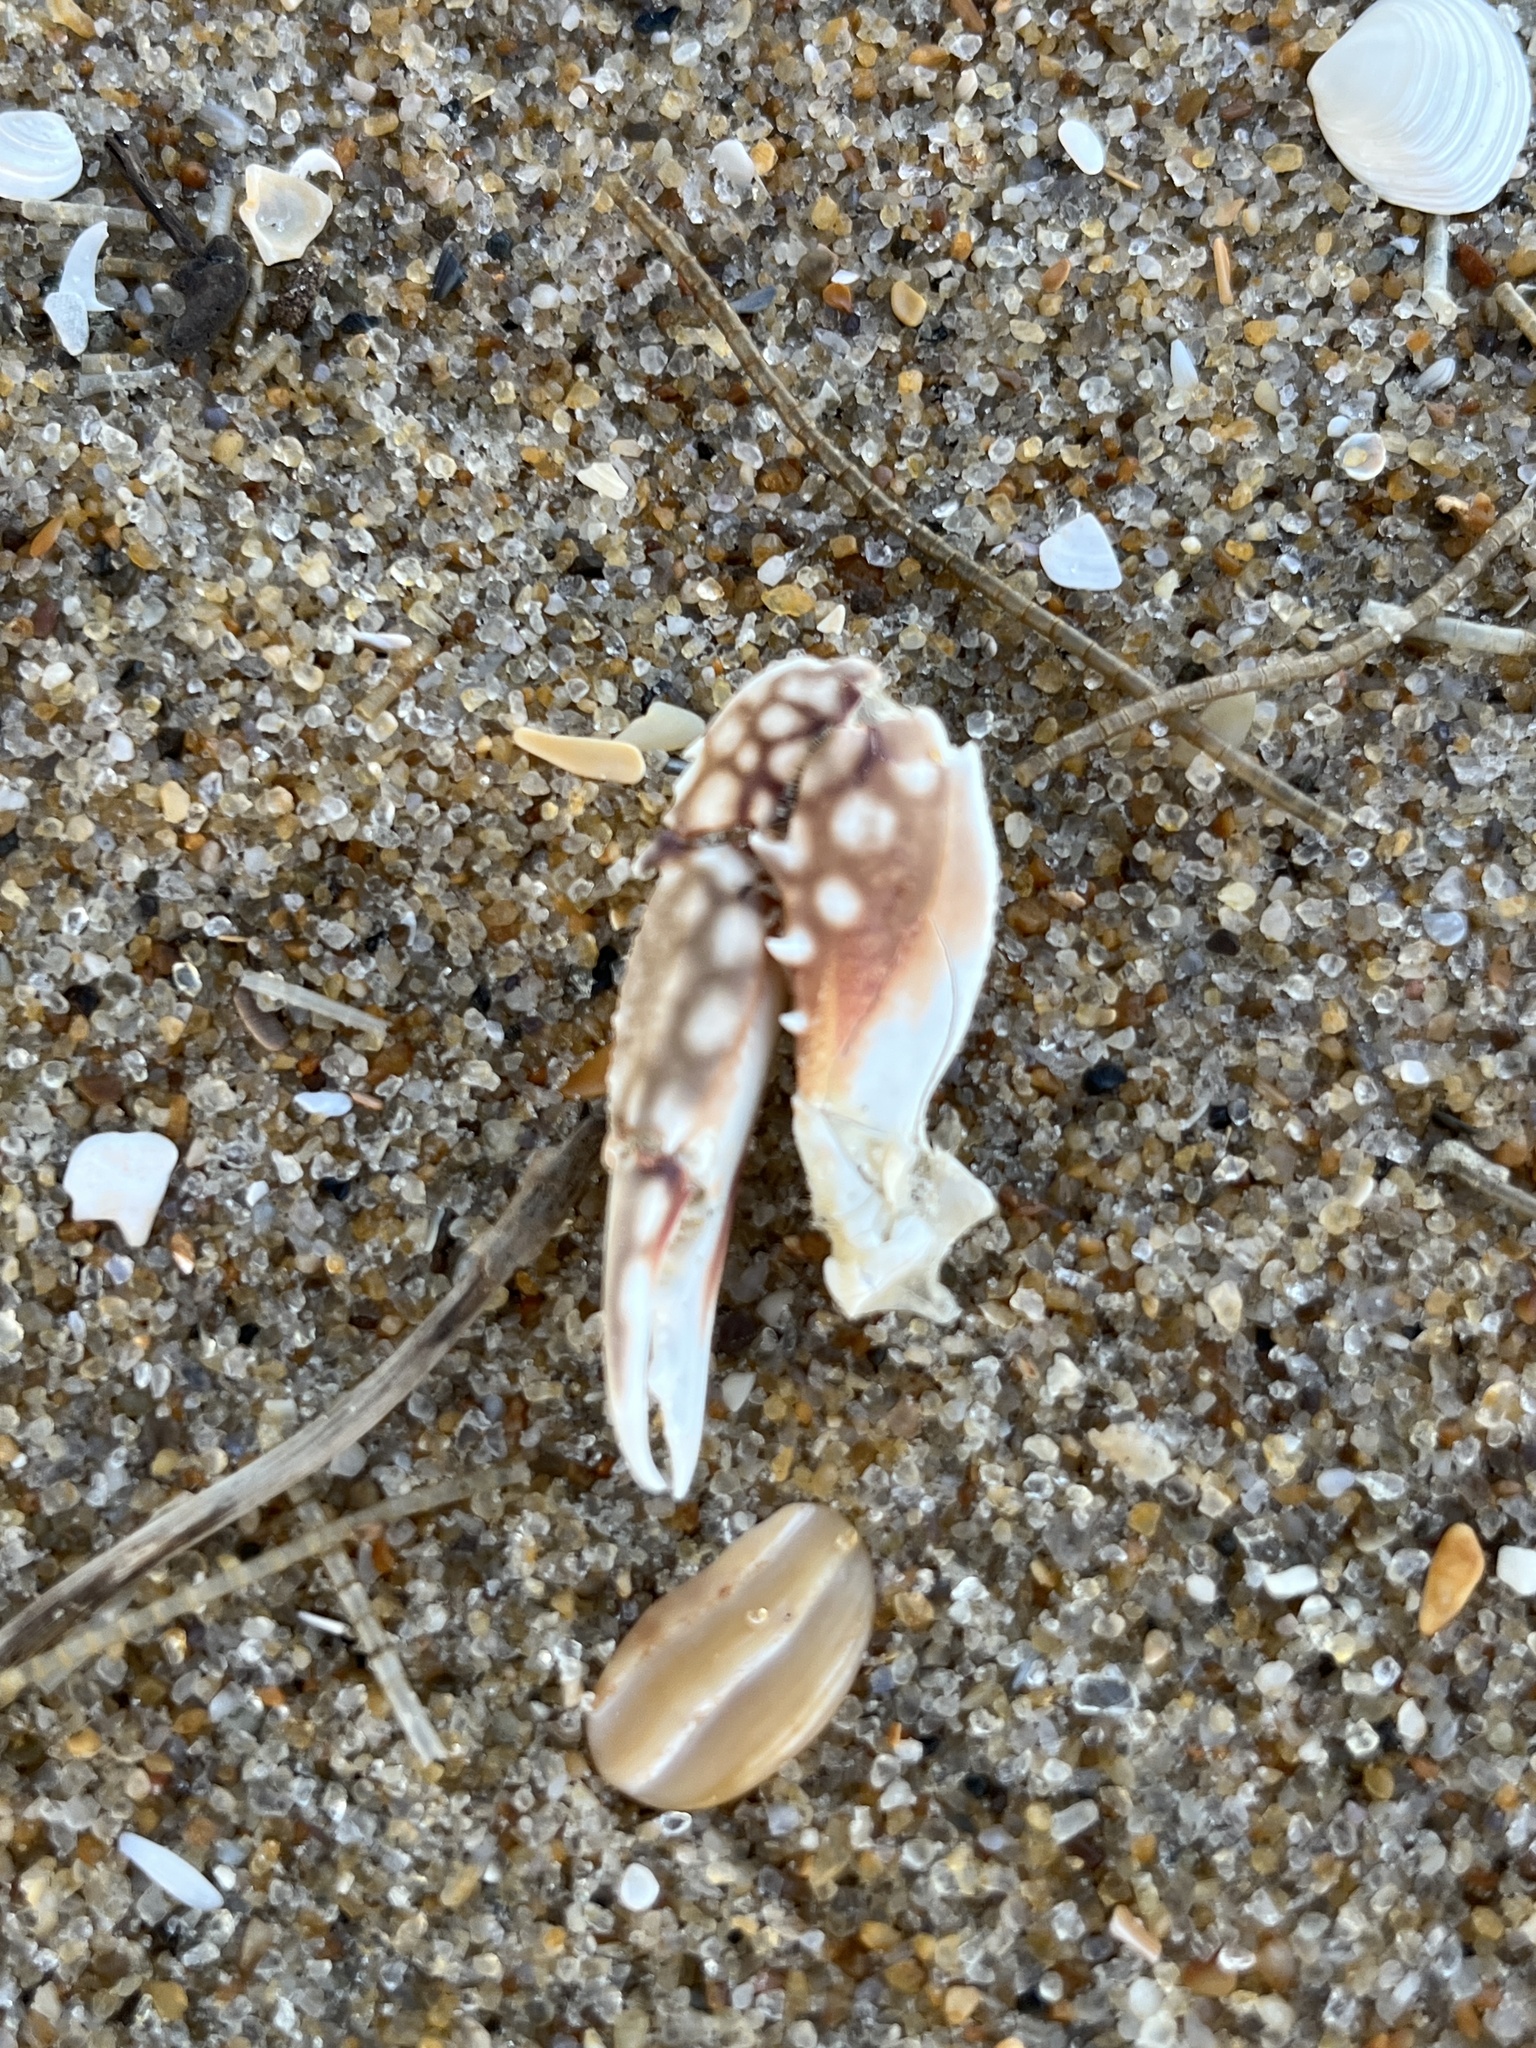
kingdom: Animalia
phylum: Arthropoda
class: Malacostraca
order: Decapoda
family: Portunidae
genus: Arenaeus
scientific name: Arenaeus cribrarius
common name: Speckled crab
